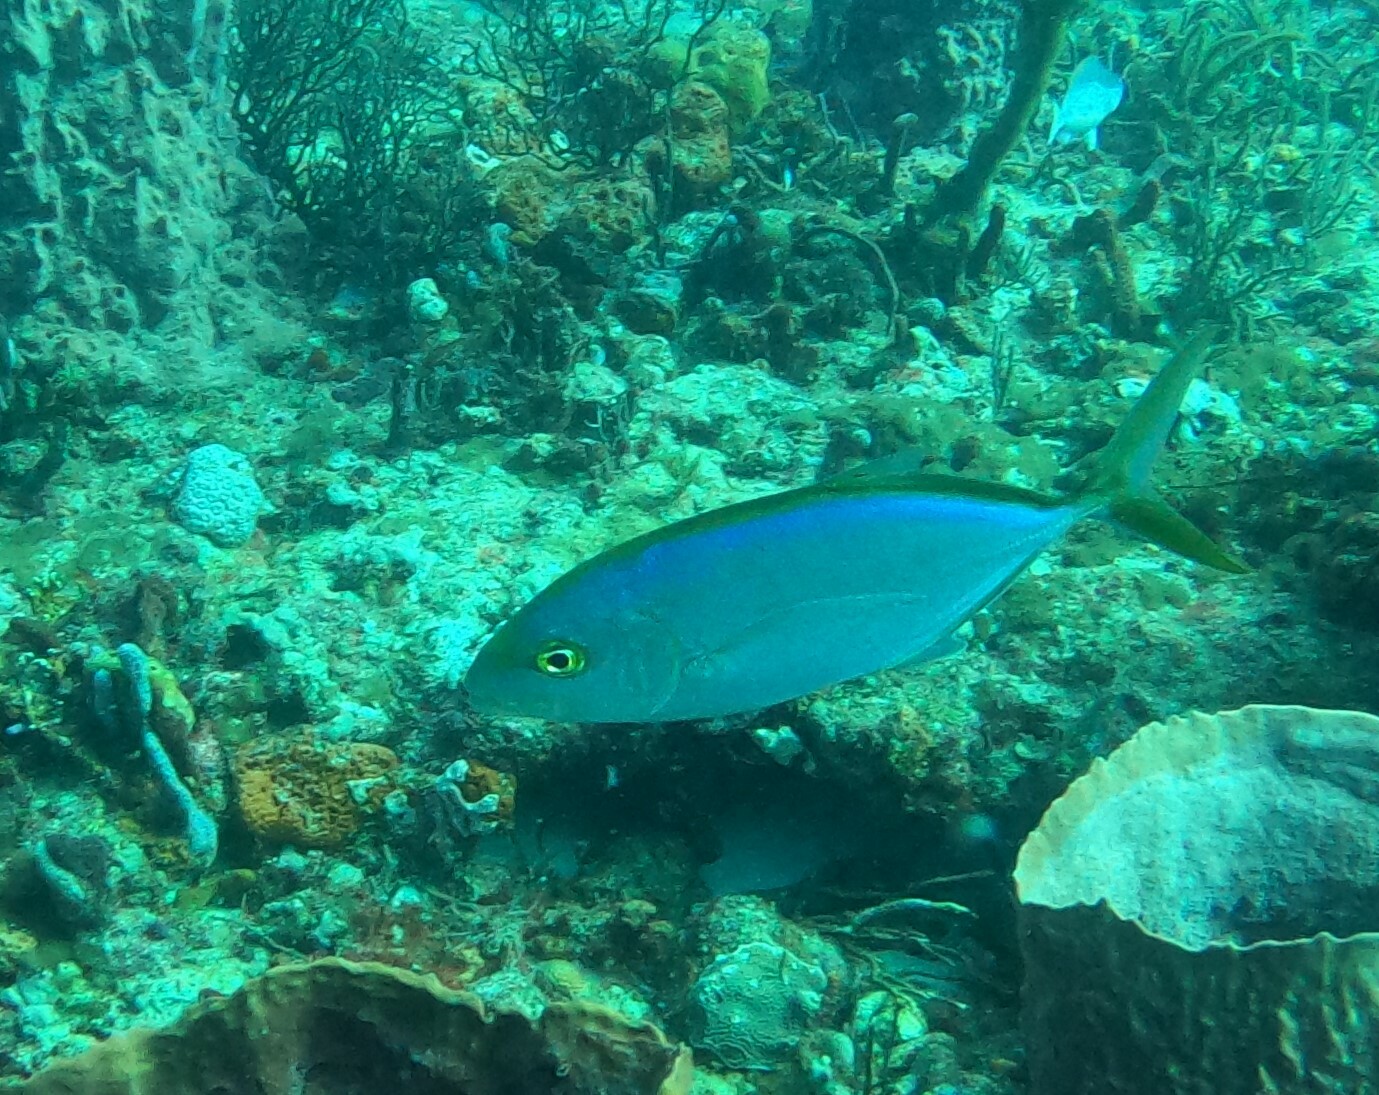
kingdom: Animalia
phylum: Chordata
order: Perciformes
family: Carangidae
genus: Carangoides
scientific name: Carangoides bartholomaei
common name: Yellow jack
